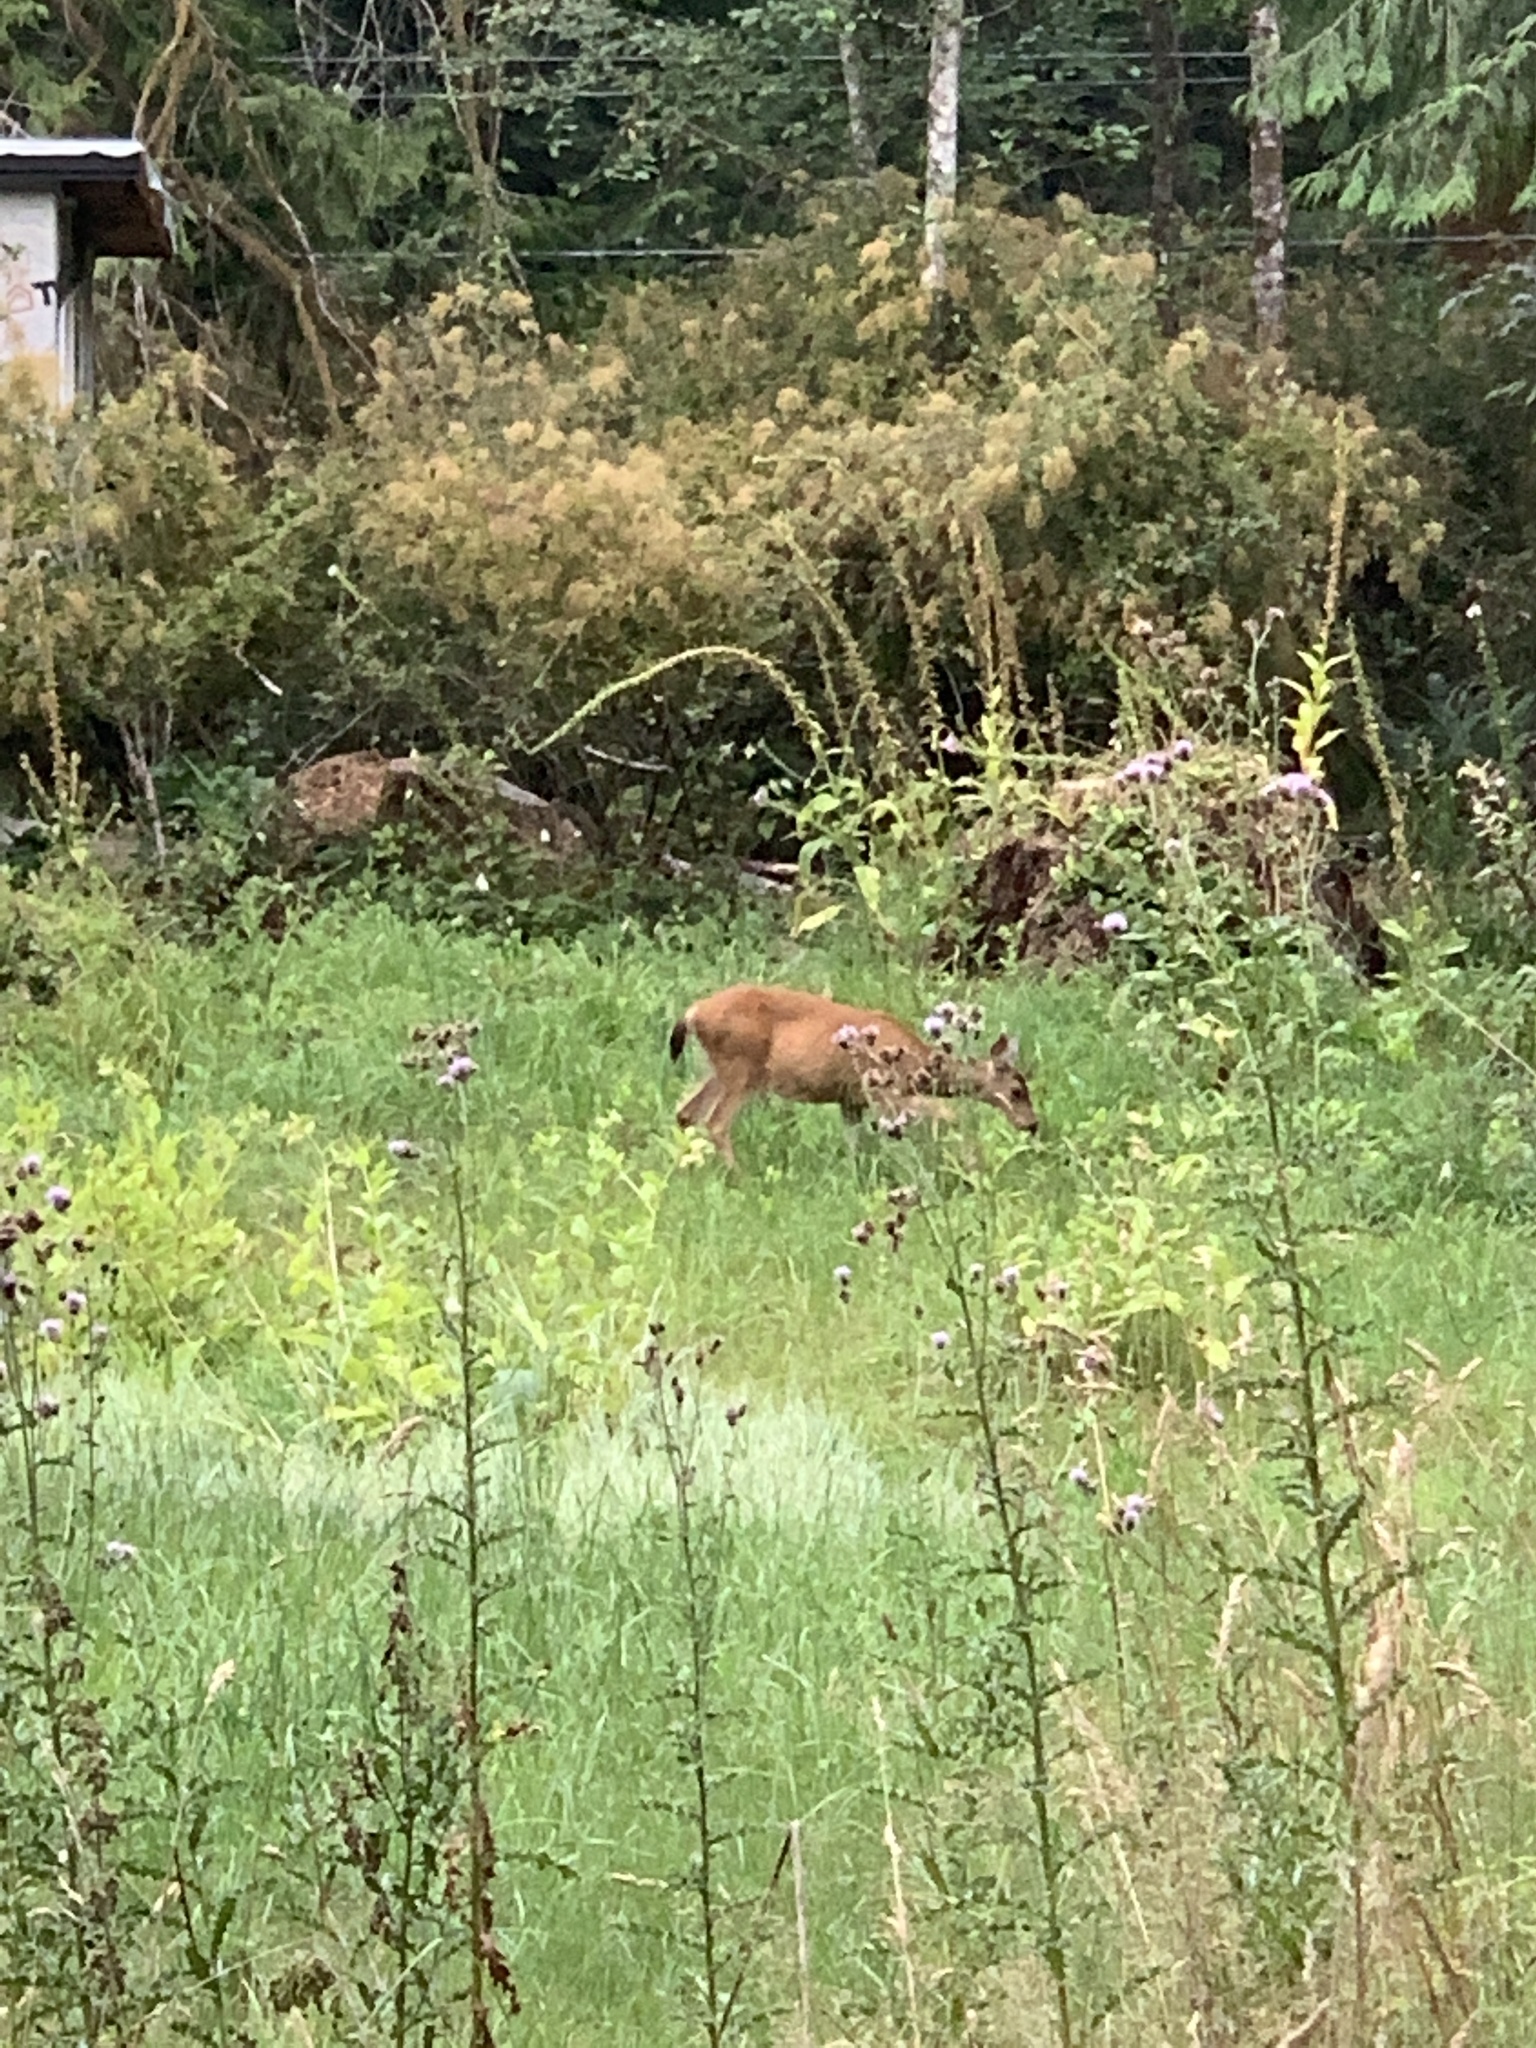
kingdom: Animalia
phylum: Chordata
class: Mammalia
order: Artiodactyla
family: Cervidae
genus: Odocoileus
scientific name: Odocoileus hemionus
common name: Mule deer
